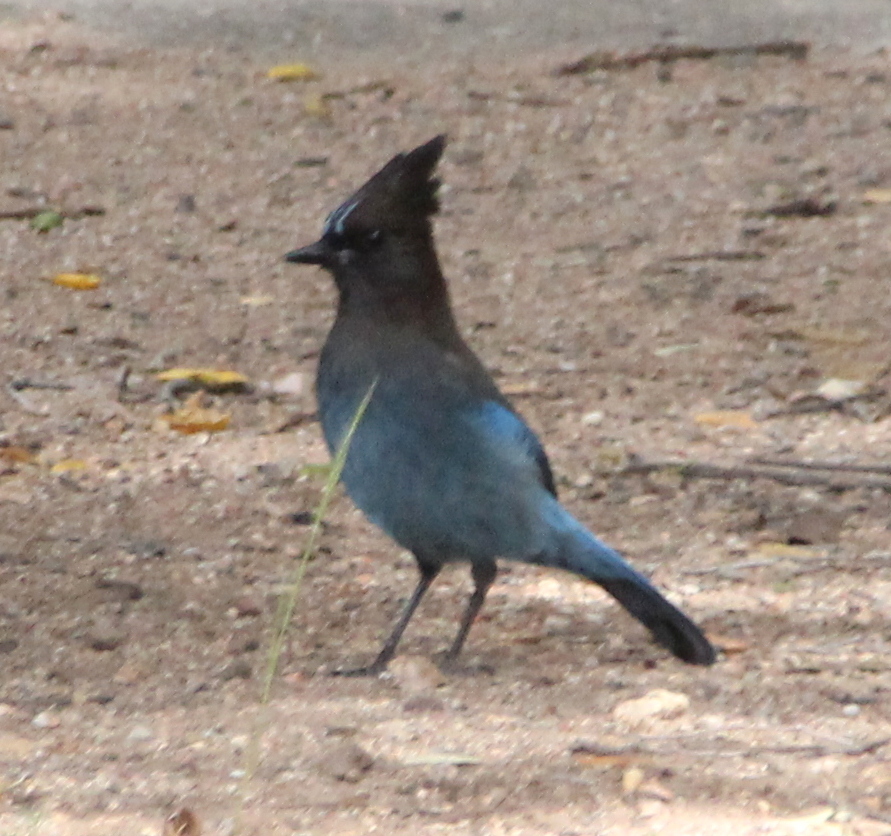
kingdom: Animalia
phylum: Chordata
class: Aves
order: Passeriformes
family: Corvidae
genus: Cyanocitta
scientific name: Cyanocitta stelleri
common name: Steller's jay
